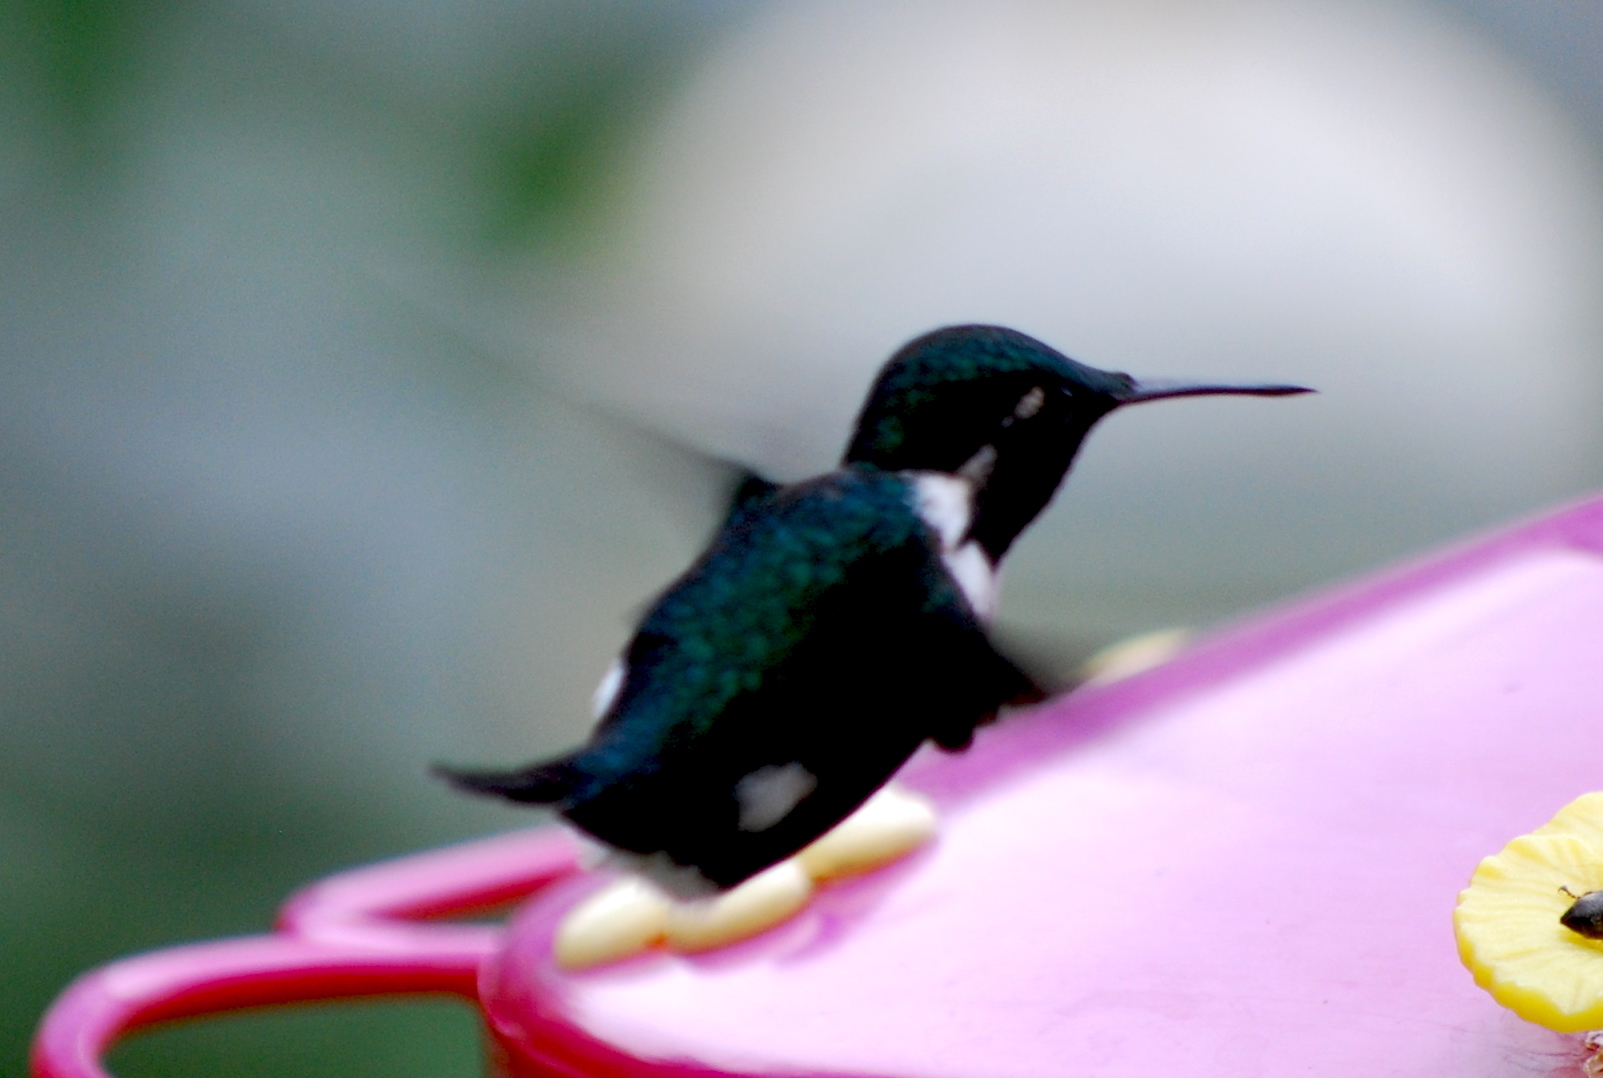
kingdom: Animalia
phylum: Chordata
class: Aves
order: Apodiformes
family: Trochilidae
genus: Chaetocercus
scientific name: Chaetocercus mulsant
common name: White-bellied woodstar
